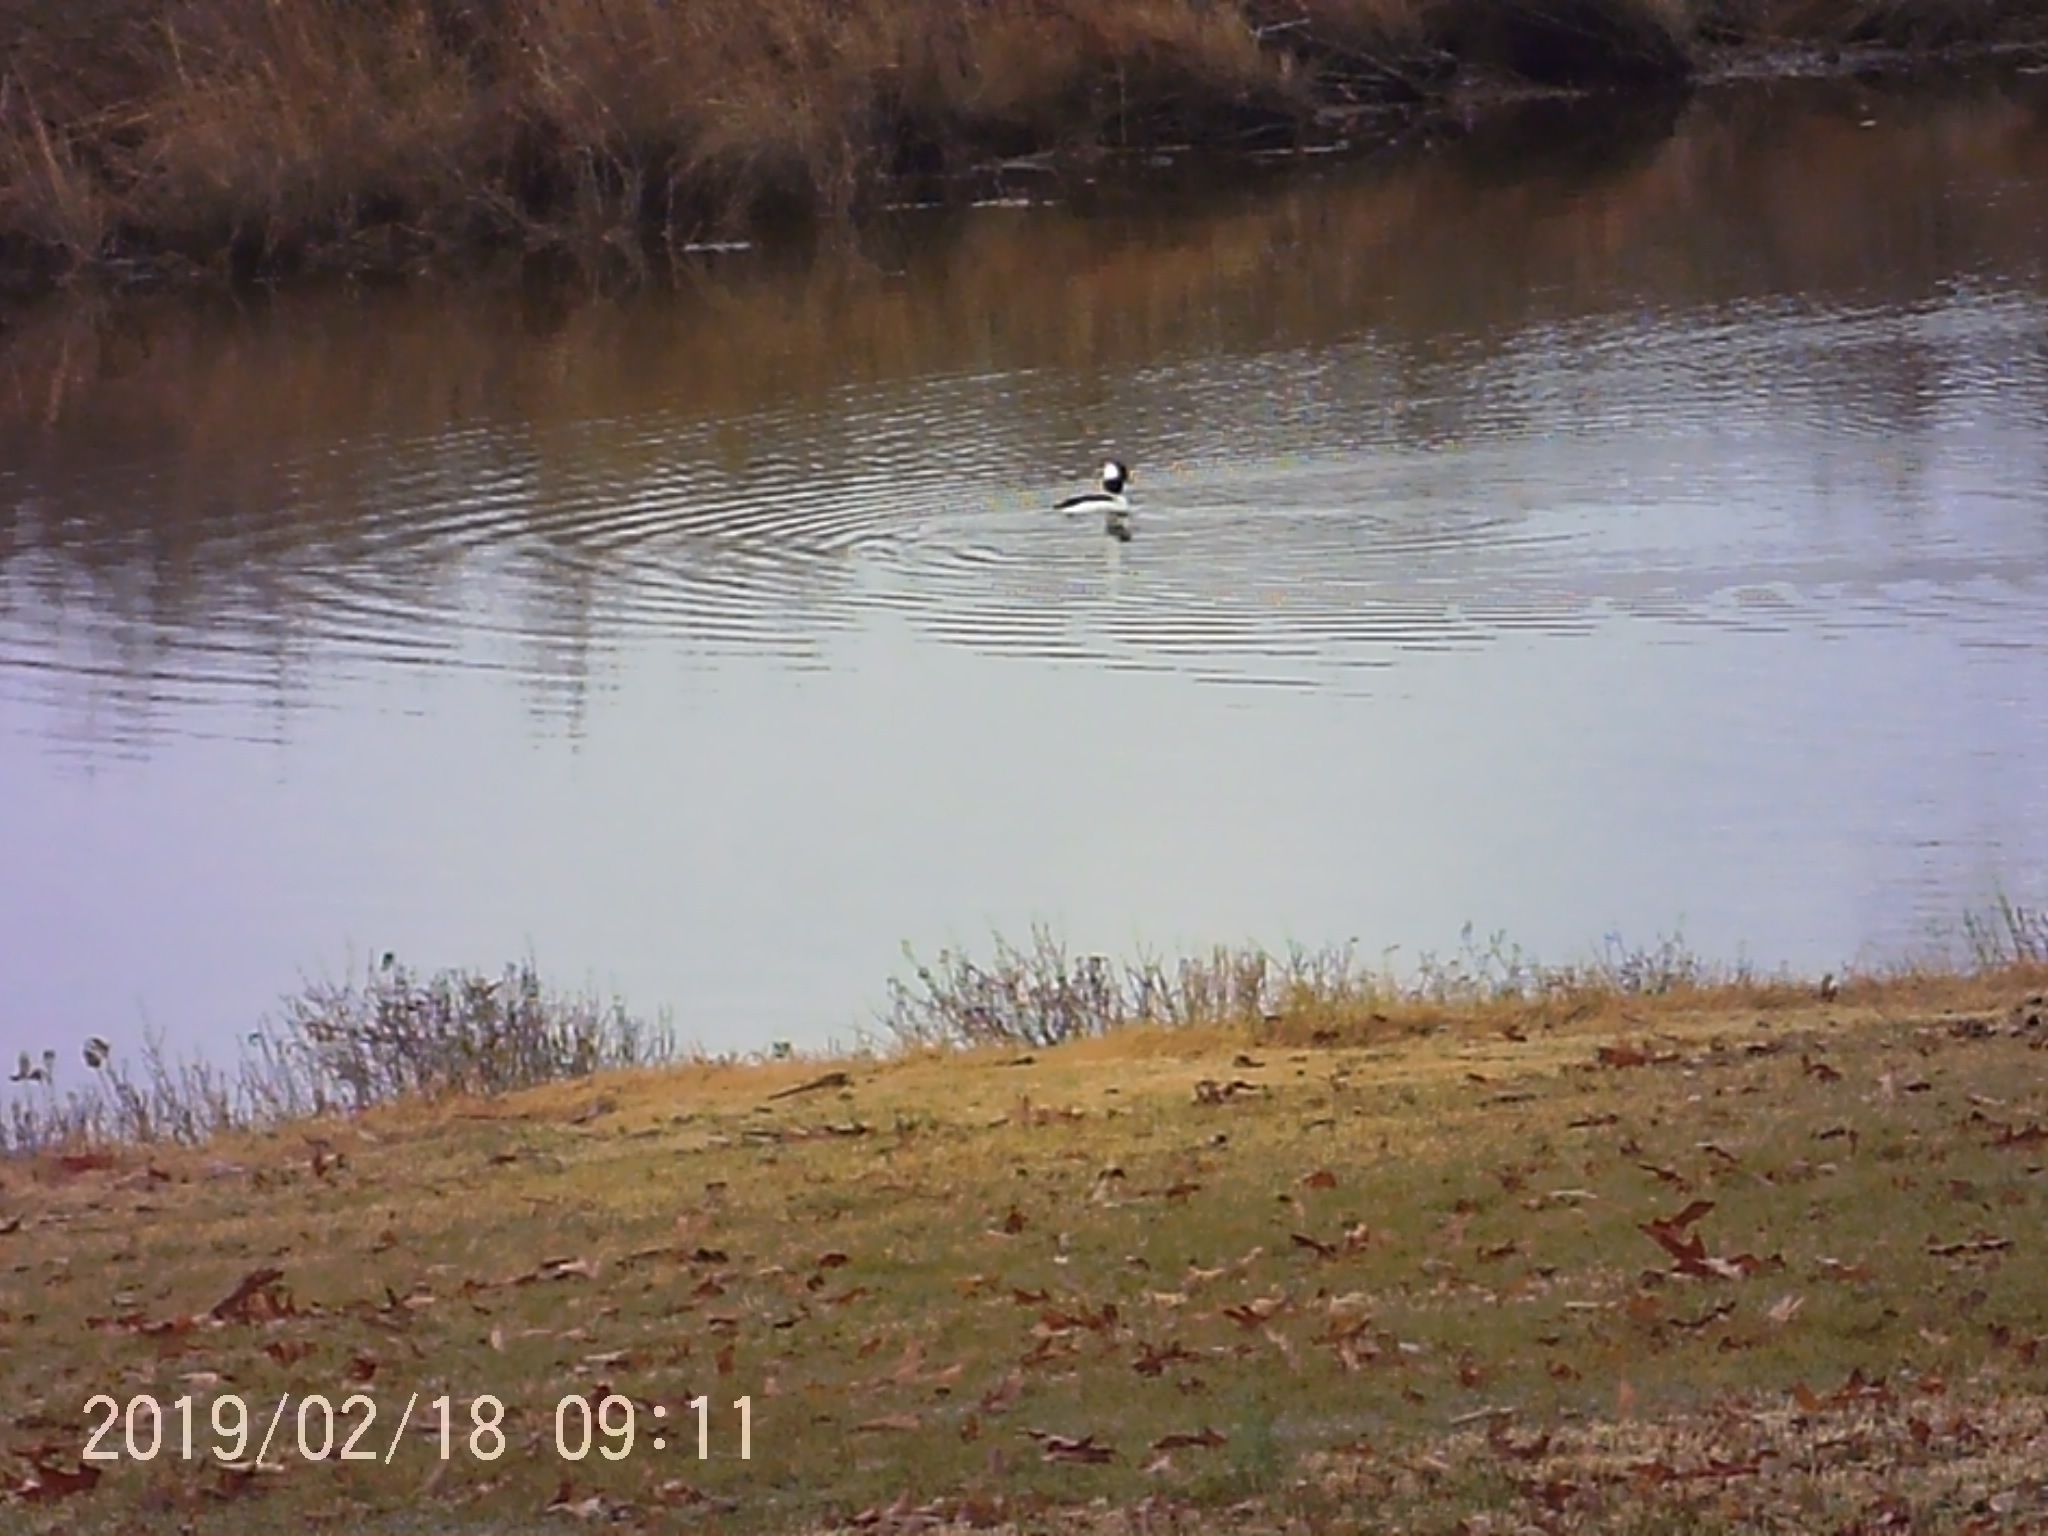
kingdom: Animalia
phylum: Chordata
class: Aves
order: Anseriformes
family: Anatidae
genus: Bucephala
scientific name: Bucephala albeola
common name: Bufflehead
